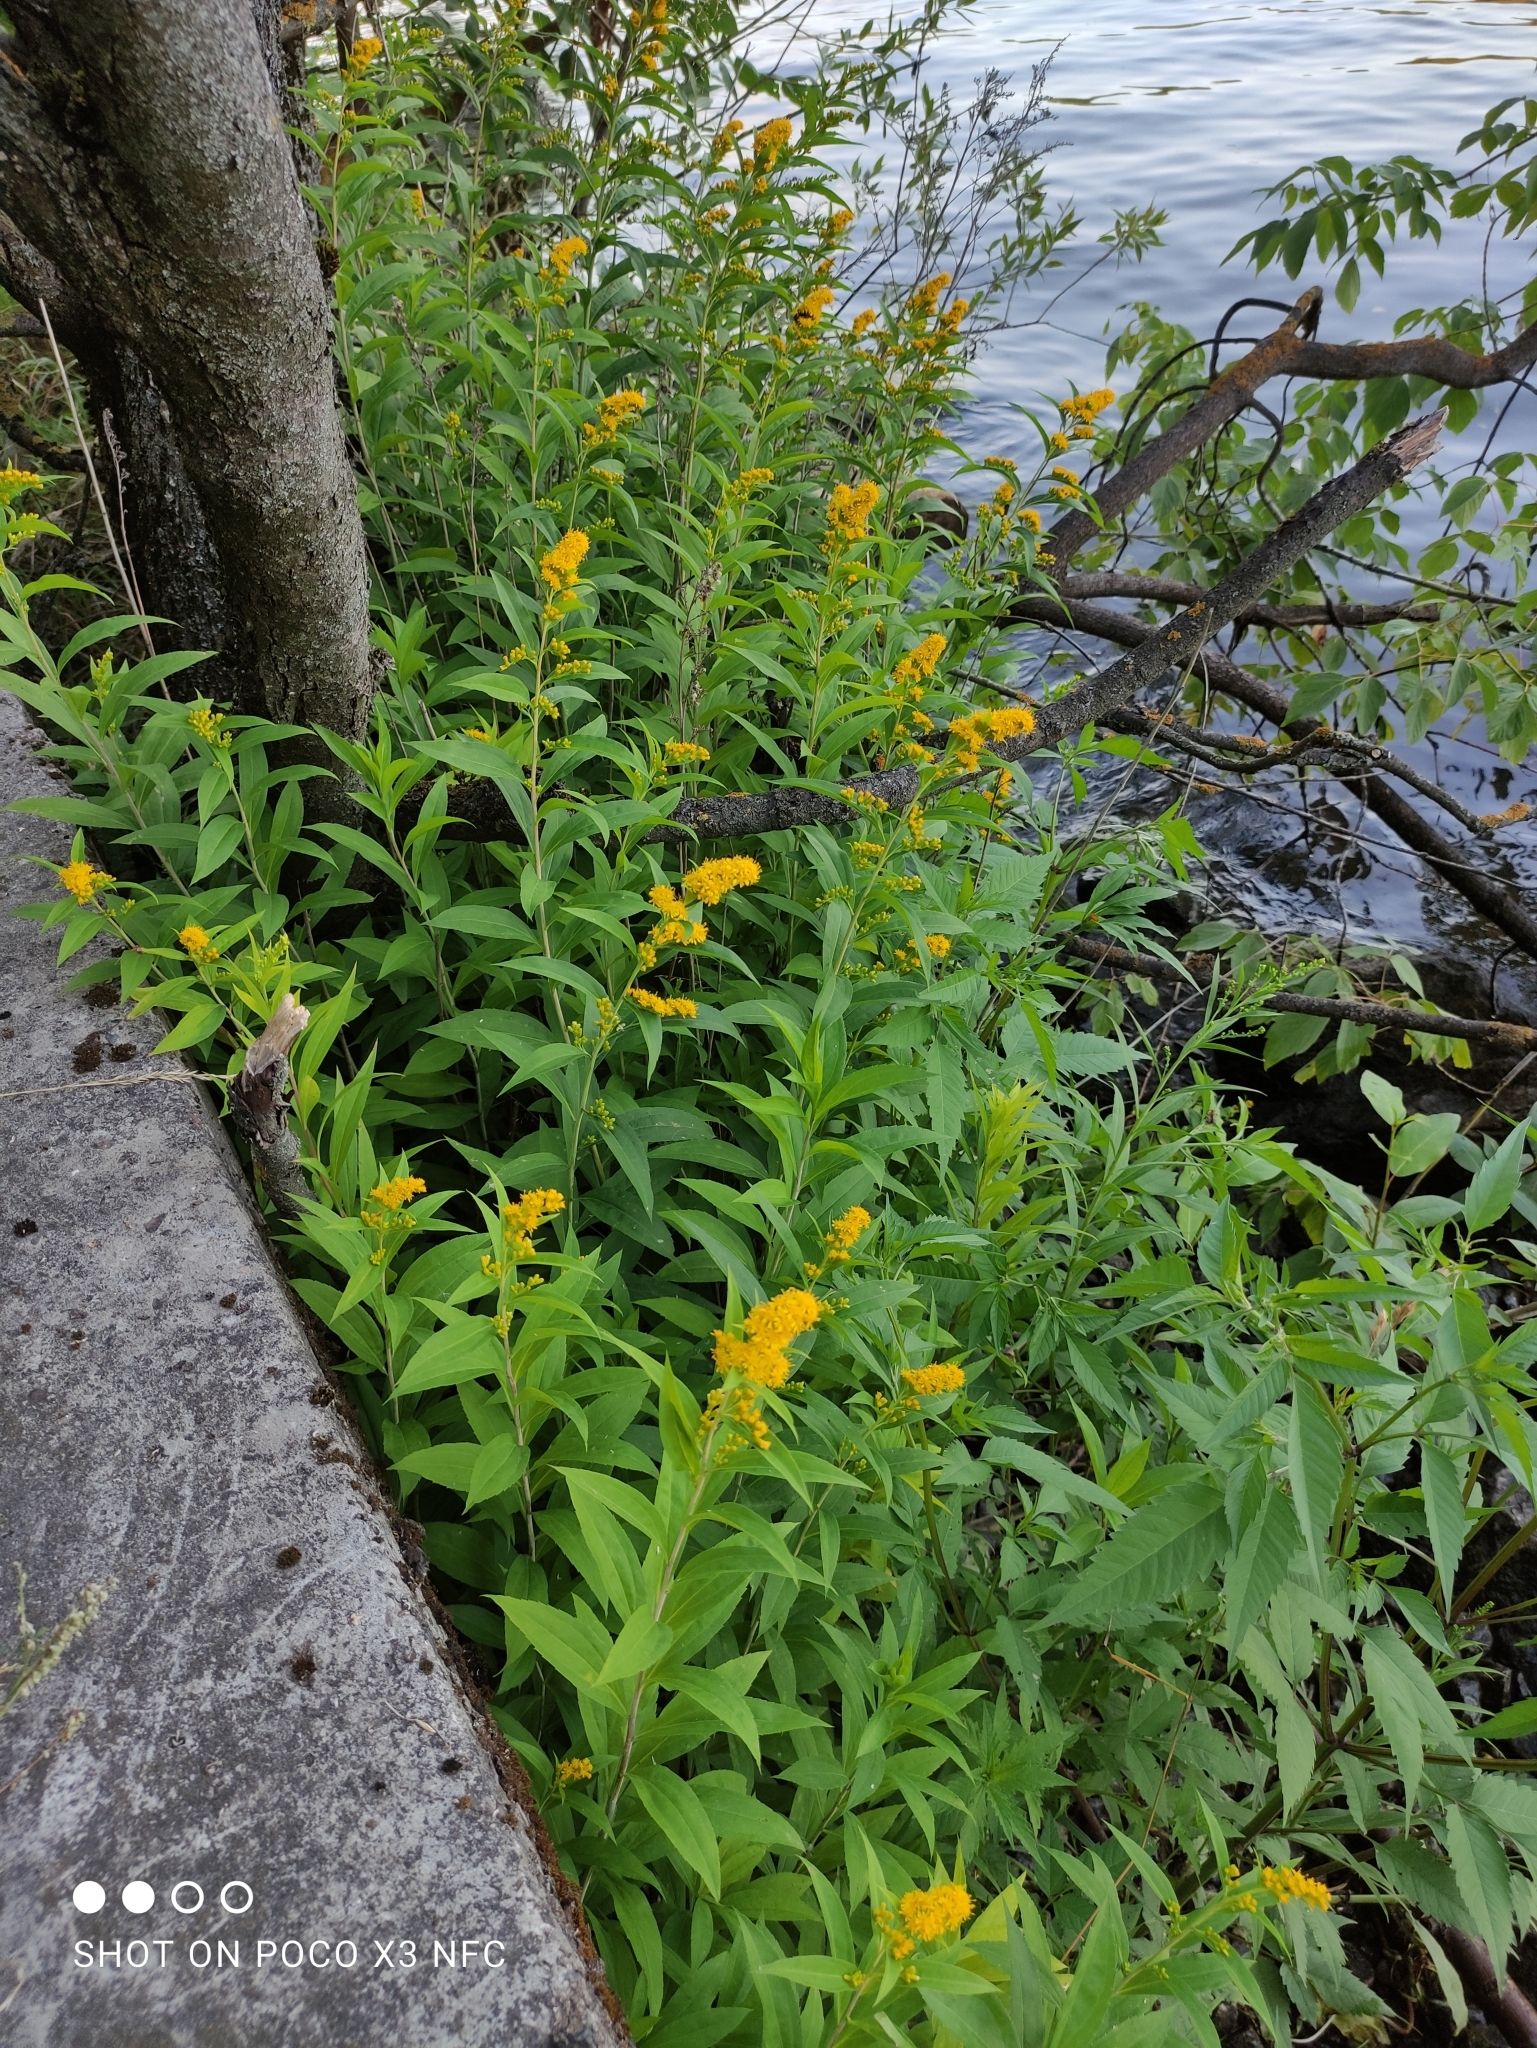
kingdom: Plantae
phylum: Tracheophyta
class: Magnoliopsida
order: Asterales
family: Asteraceae
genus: Solidago
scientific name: Solidago gigantea
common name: Giant goldenrod
